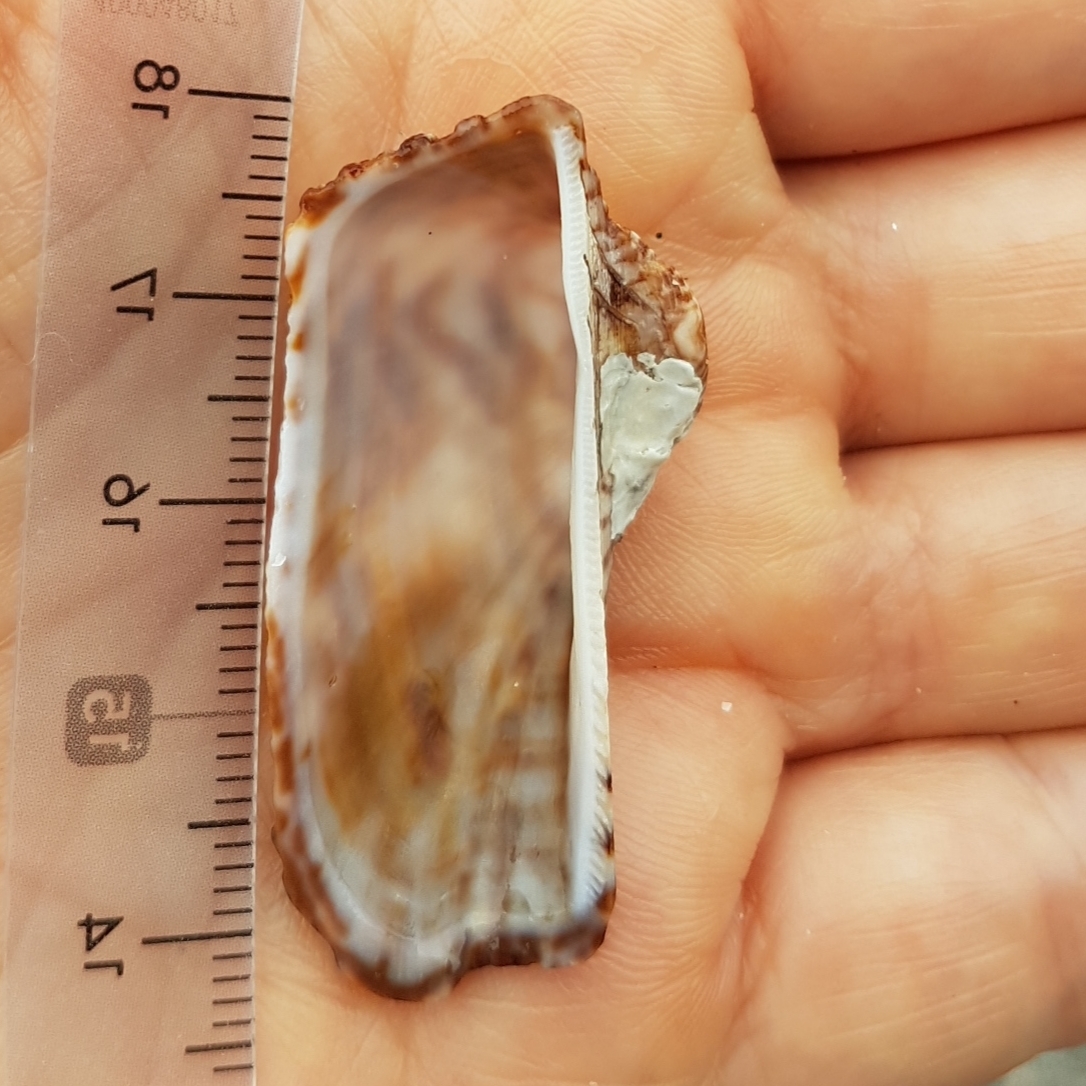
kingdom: Animalia
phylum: Mollusca
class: Bivalvia
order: Arcida
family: Arcidae
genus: Arca
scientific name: Arca noae
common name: Noah's arch
